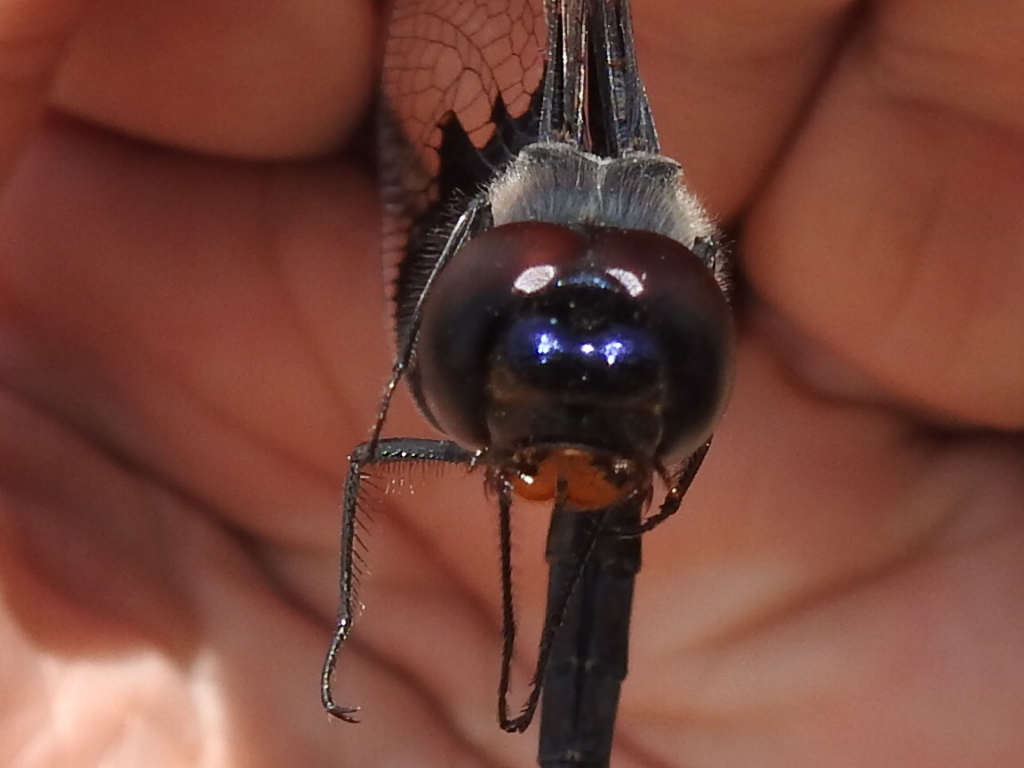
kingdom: Animalia
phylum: Arthropoda
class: Insecta
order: Odonata
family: Libellulidae
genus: Tramea
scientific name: Tramea lacerata
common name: Black saddlebags
